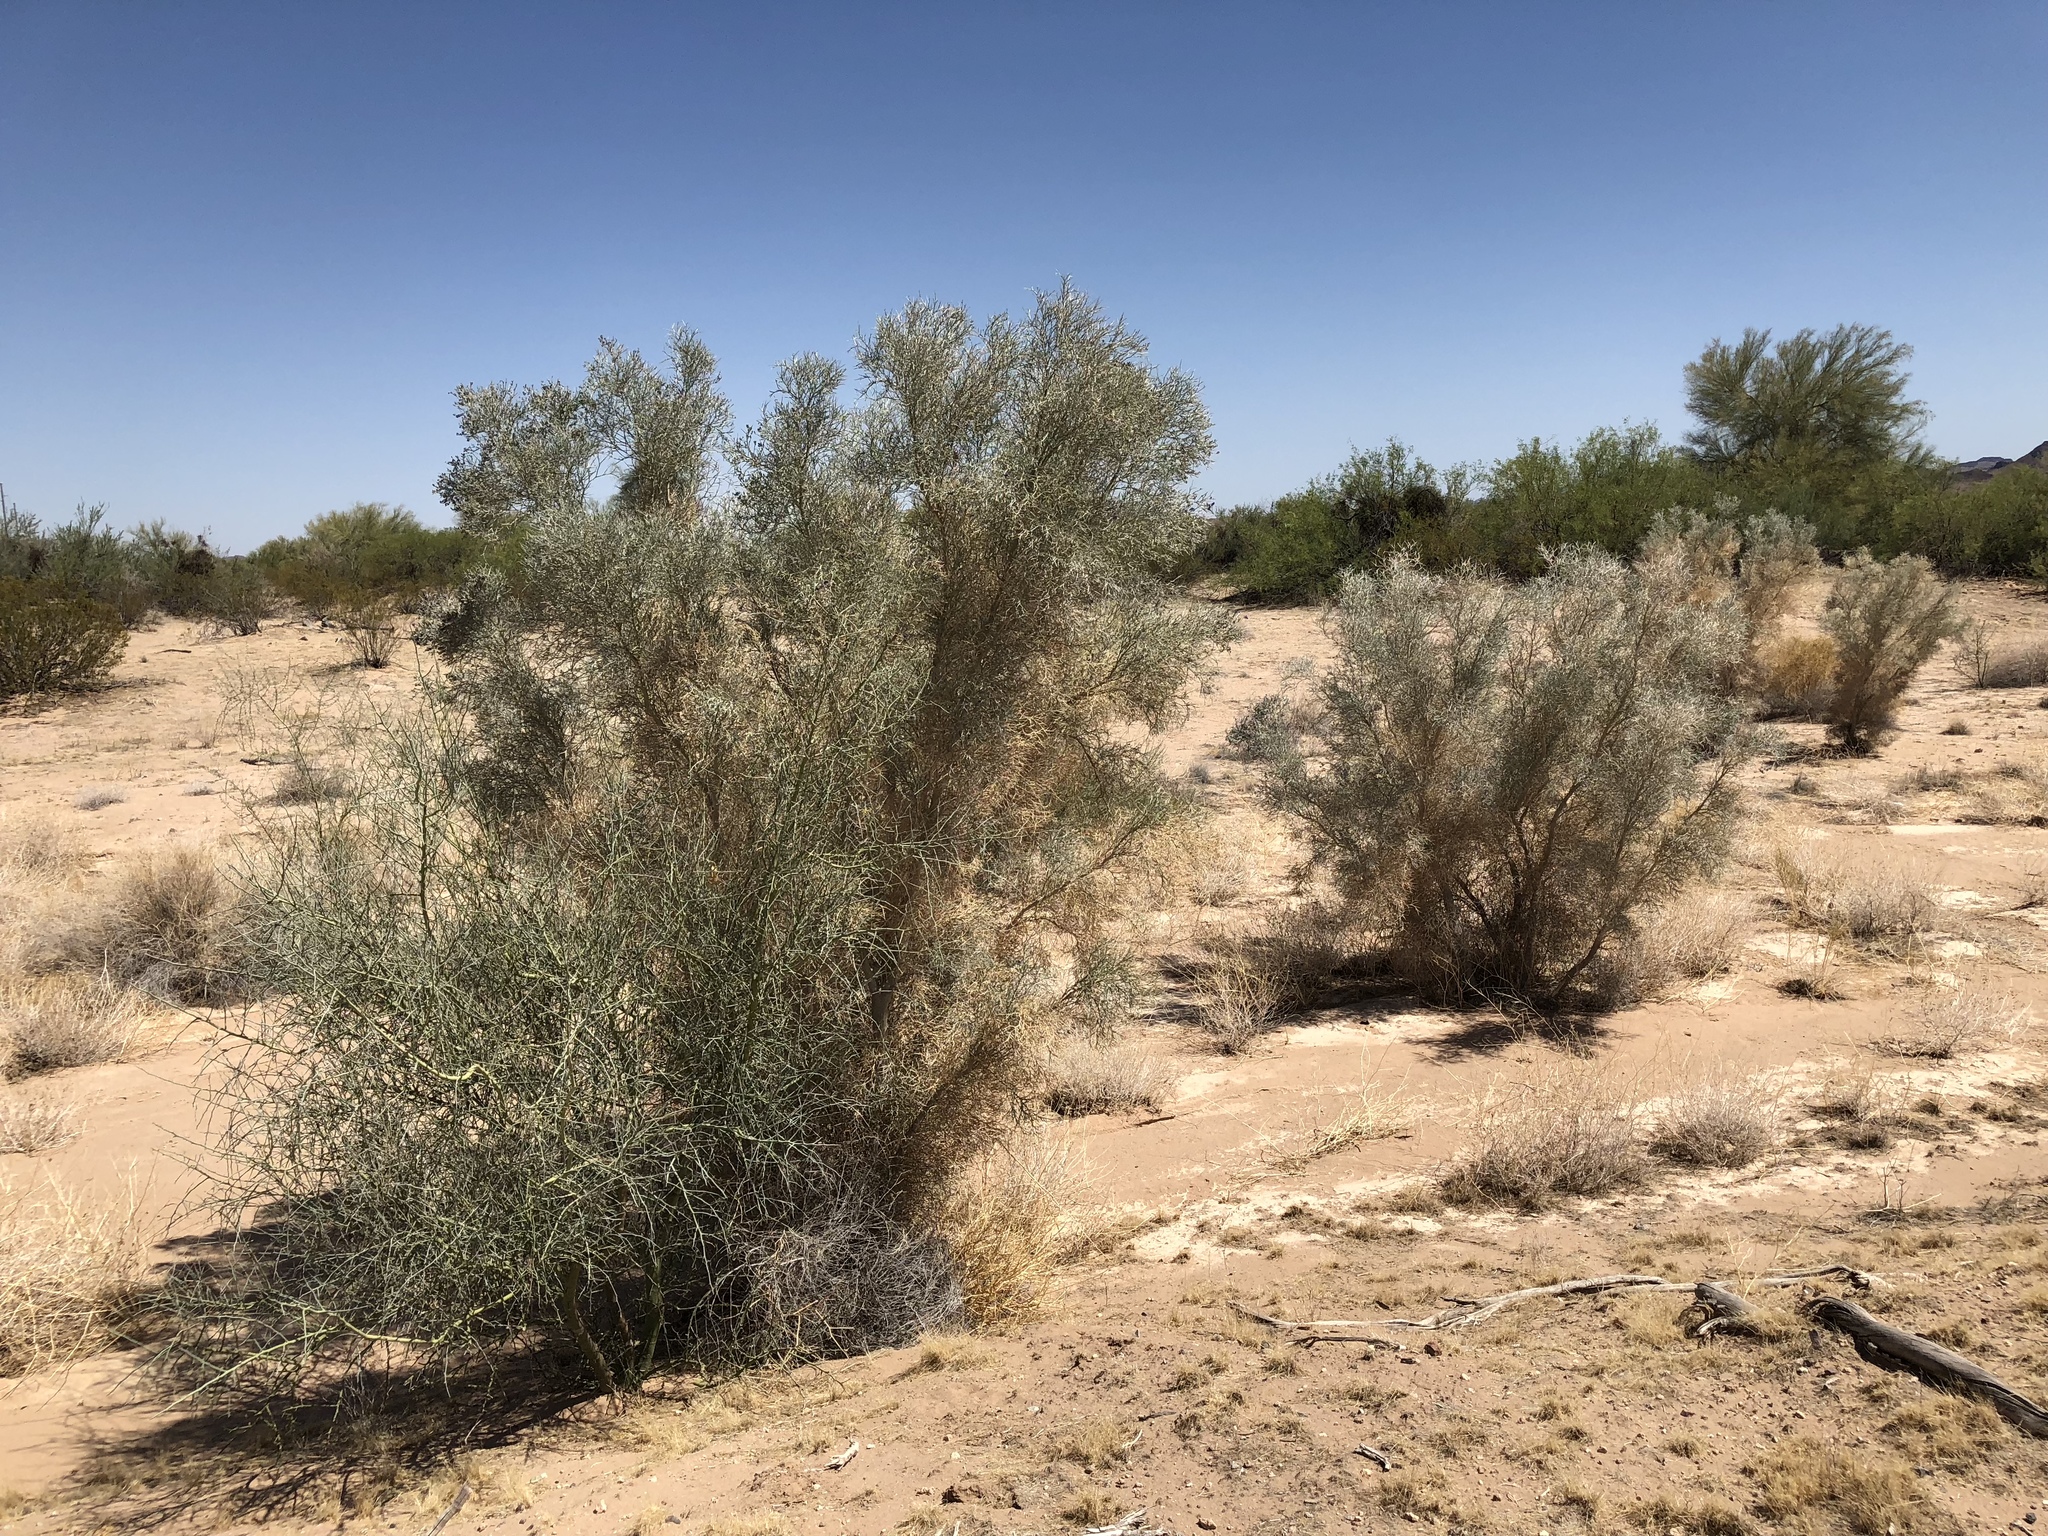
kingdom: Plantae
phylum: Tracheophyta
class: Magnoliopsida
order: Fabales
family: Fabaceae
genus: Psorothamnus
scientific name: Psorothamnus spinosus
